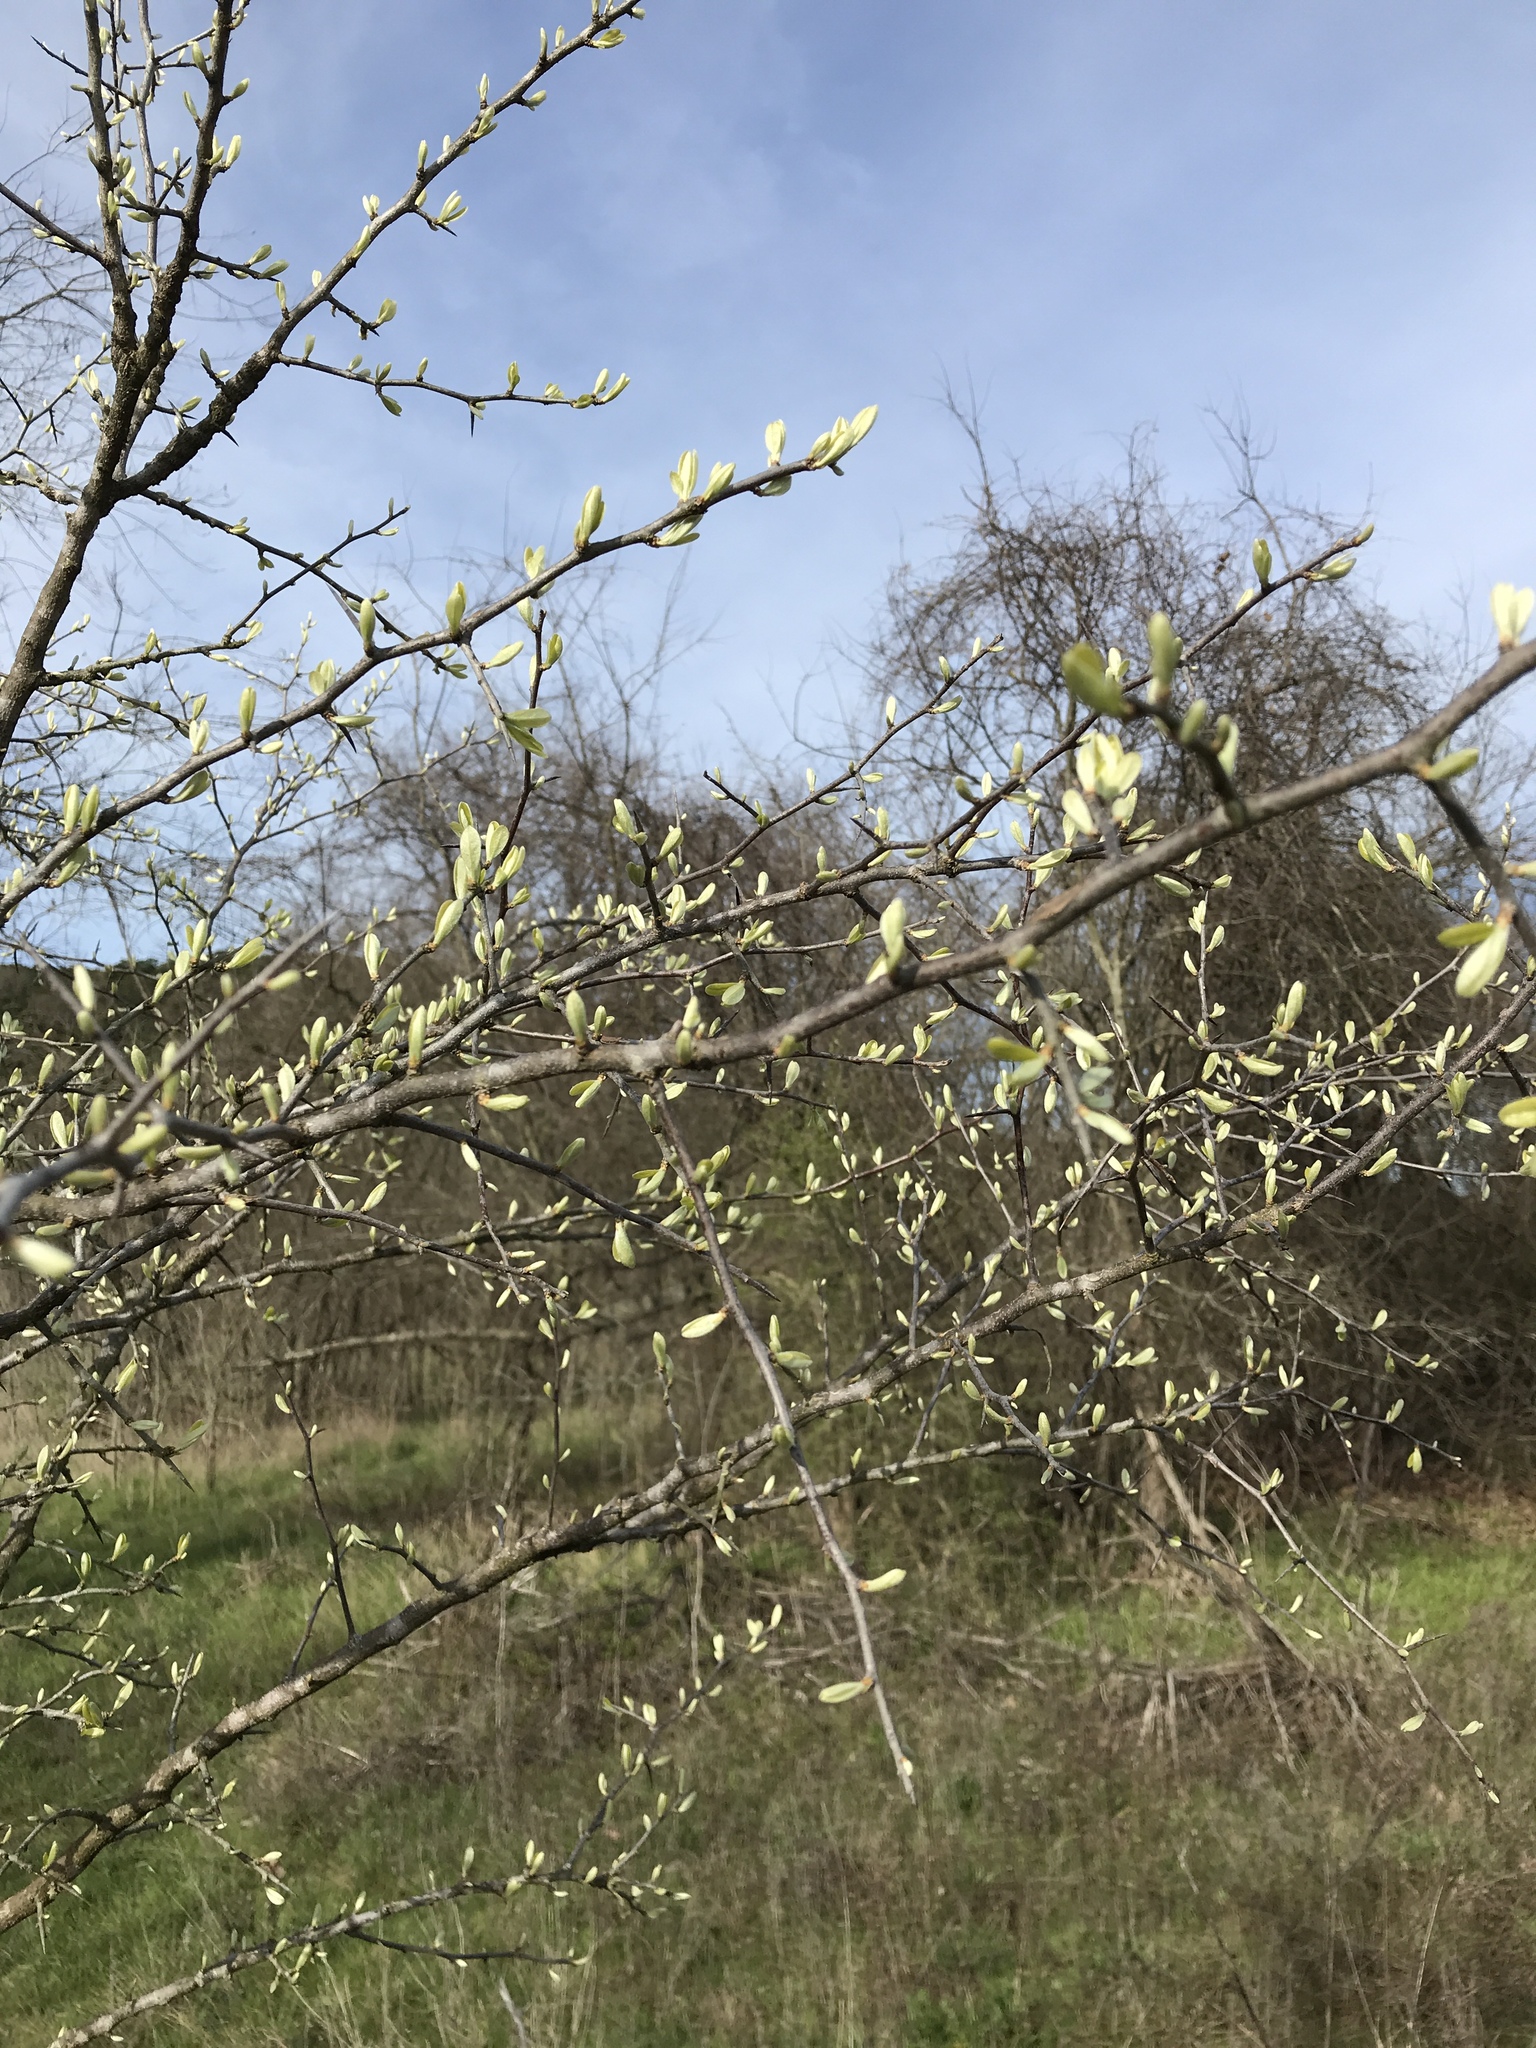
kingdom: Plantae
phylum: Tracheophyta
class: Magnoliopsida
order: Ericales
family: Sapotaceae
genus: Sideroxylon
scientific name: Sideroxylon lanuginosum
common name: Chittamwood
